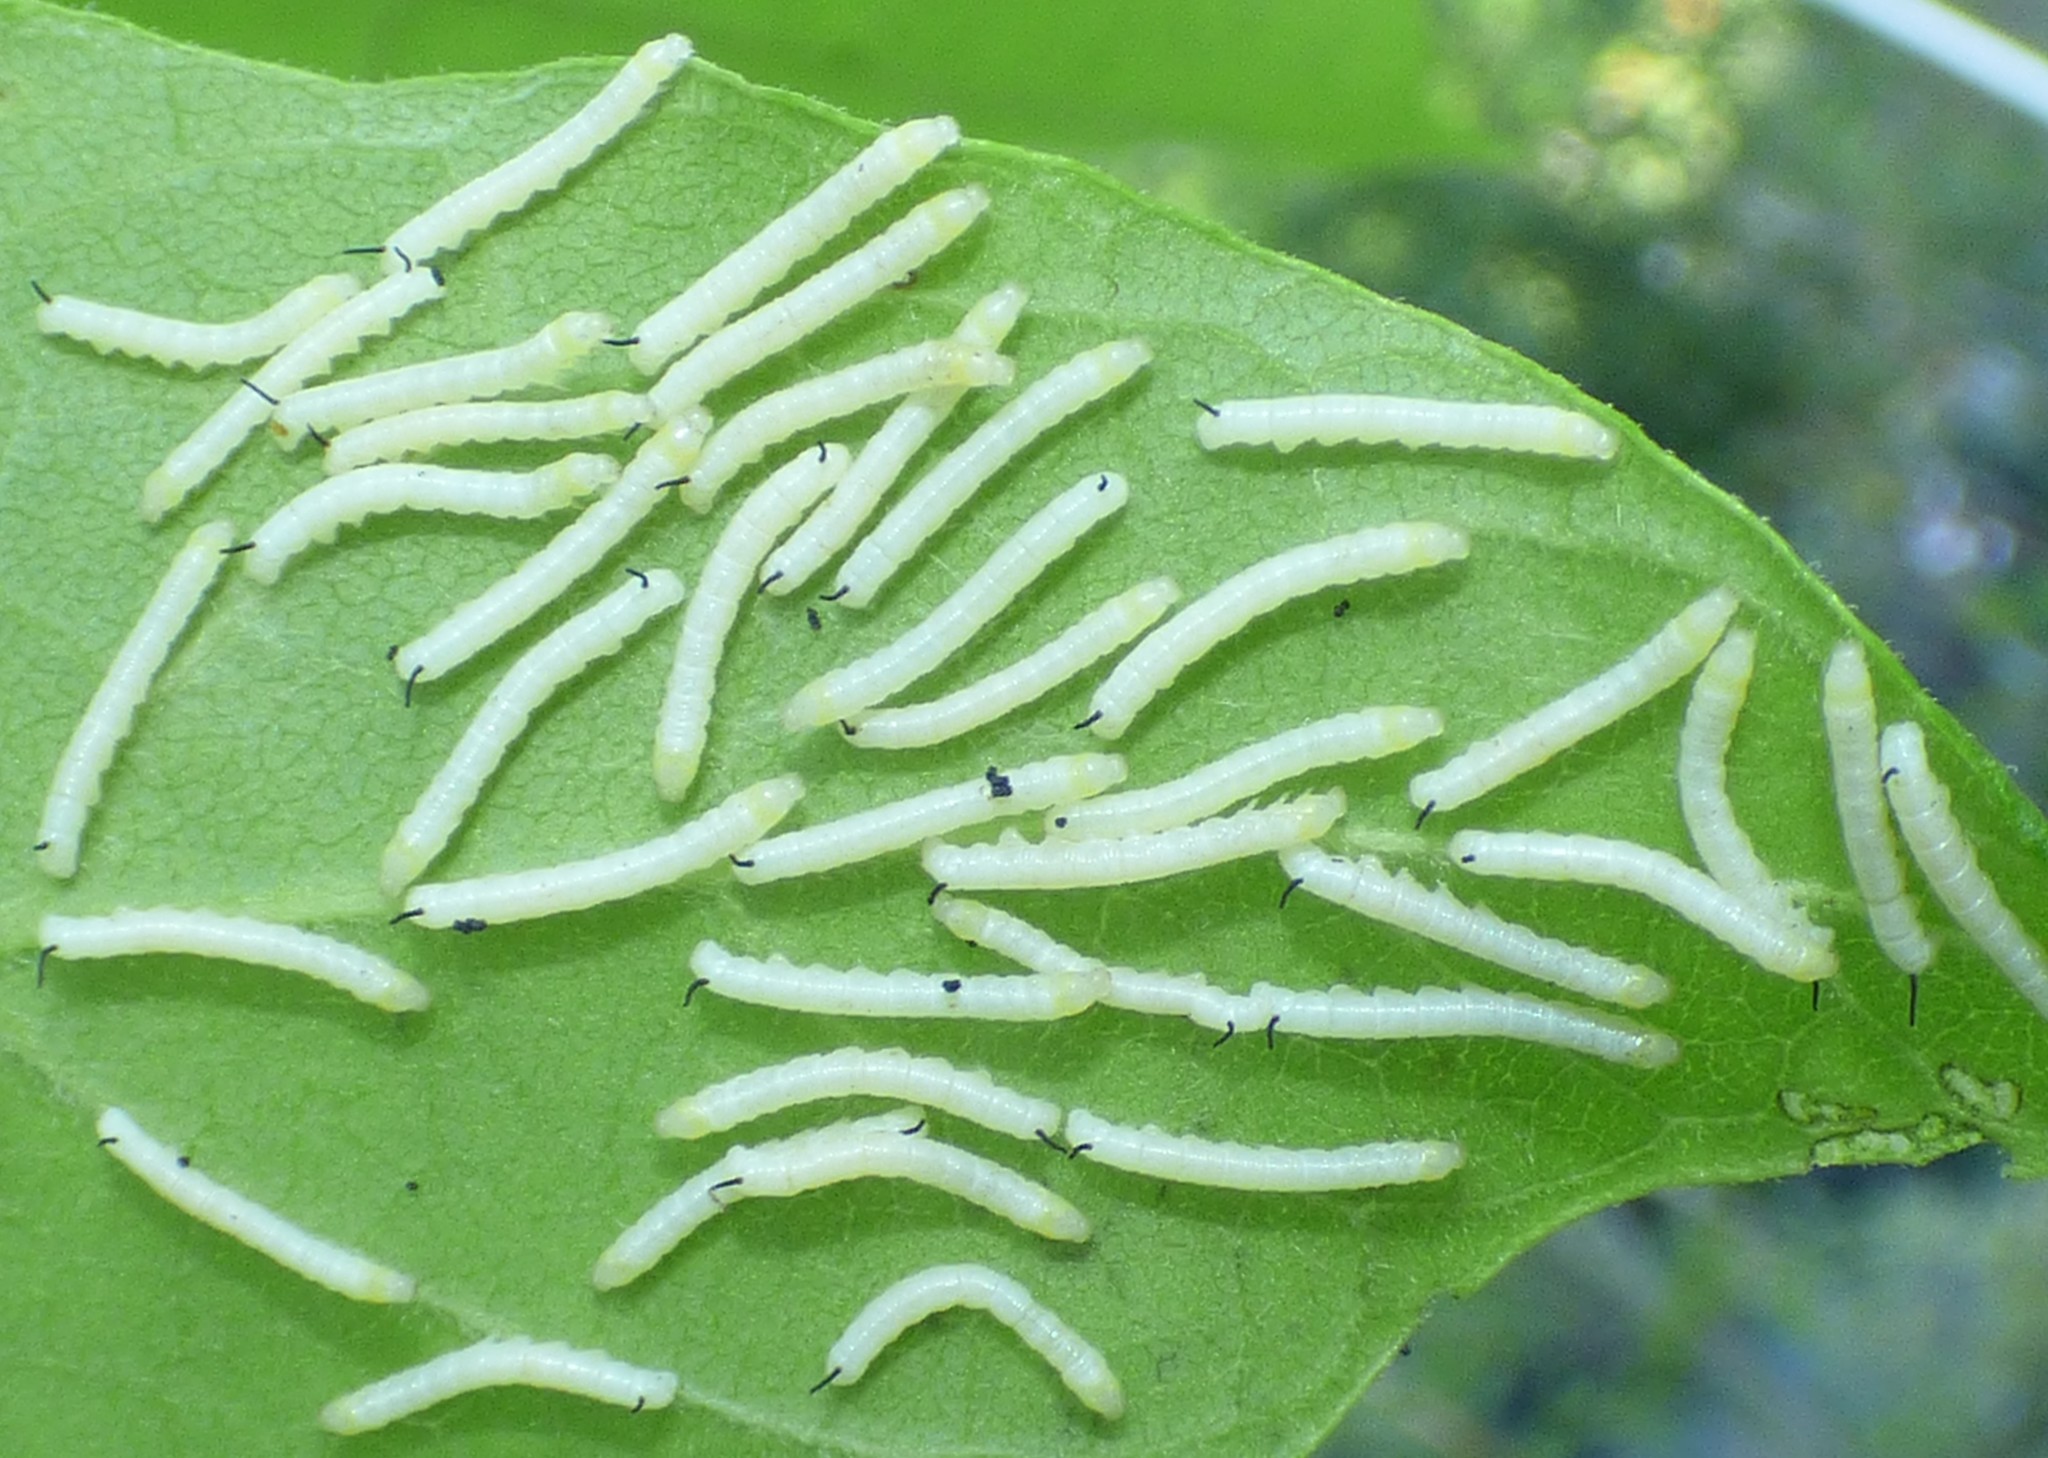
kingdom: Animalia
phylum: Arthropoda
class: Insecta
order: Lepidoptera
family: Sphingidae
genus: Ceratomia
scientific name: Ceratomia catalpae
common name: Catalpa hornworm
